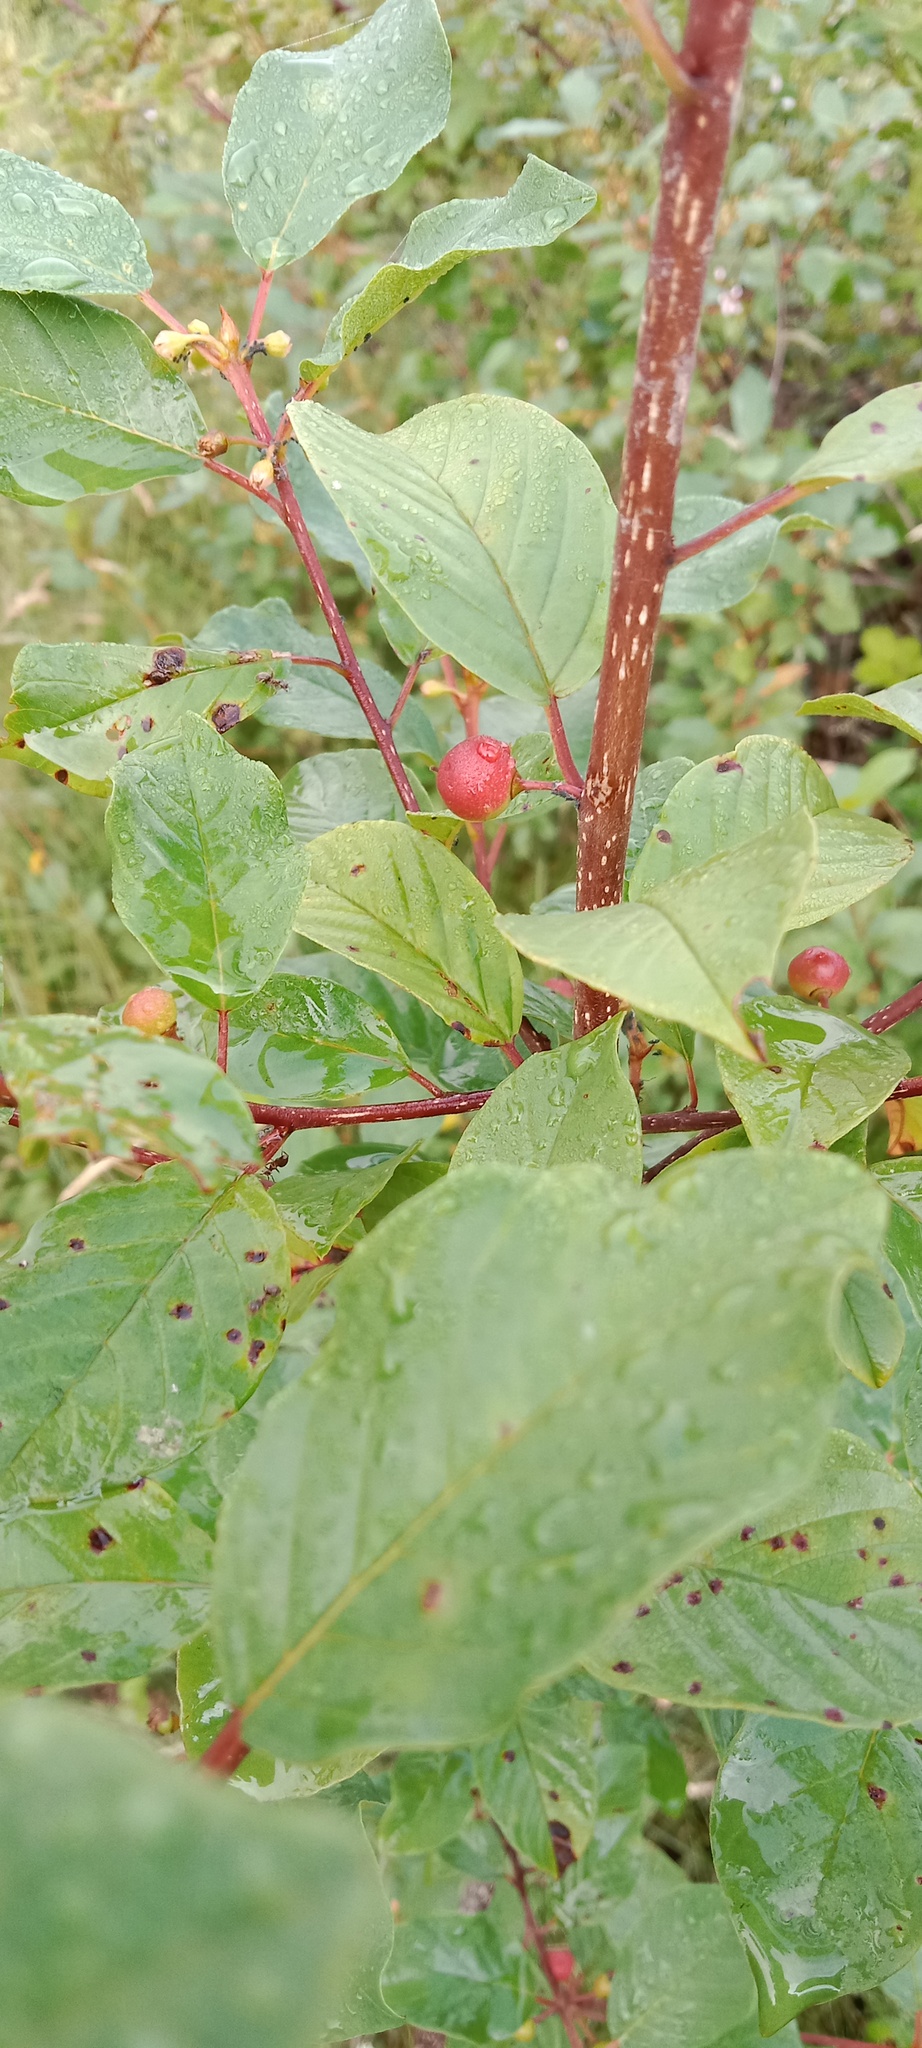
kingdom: Plantae
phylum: Tracheophyta
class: Magnoliopsida
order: Rosales
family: Rhamnaceae
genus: Frangula
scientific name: Frangula alnus
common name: Alder buckthorn
